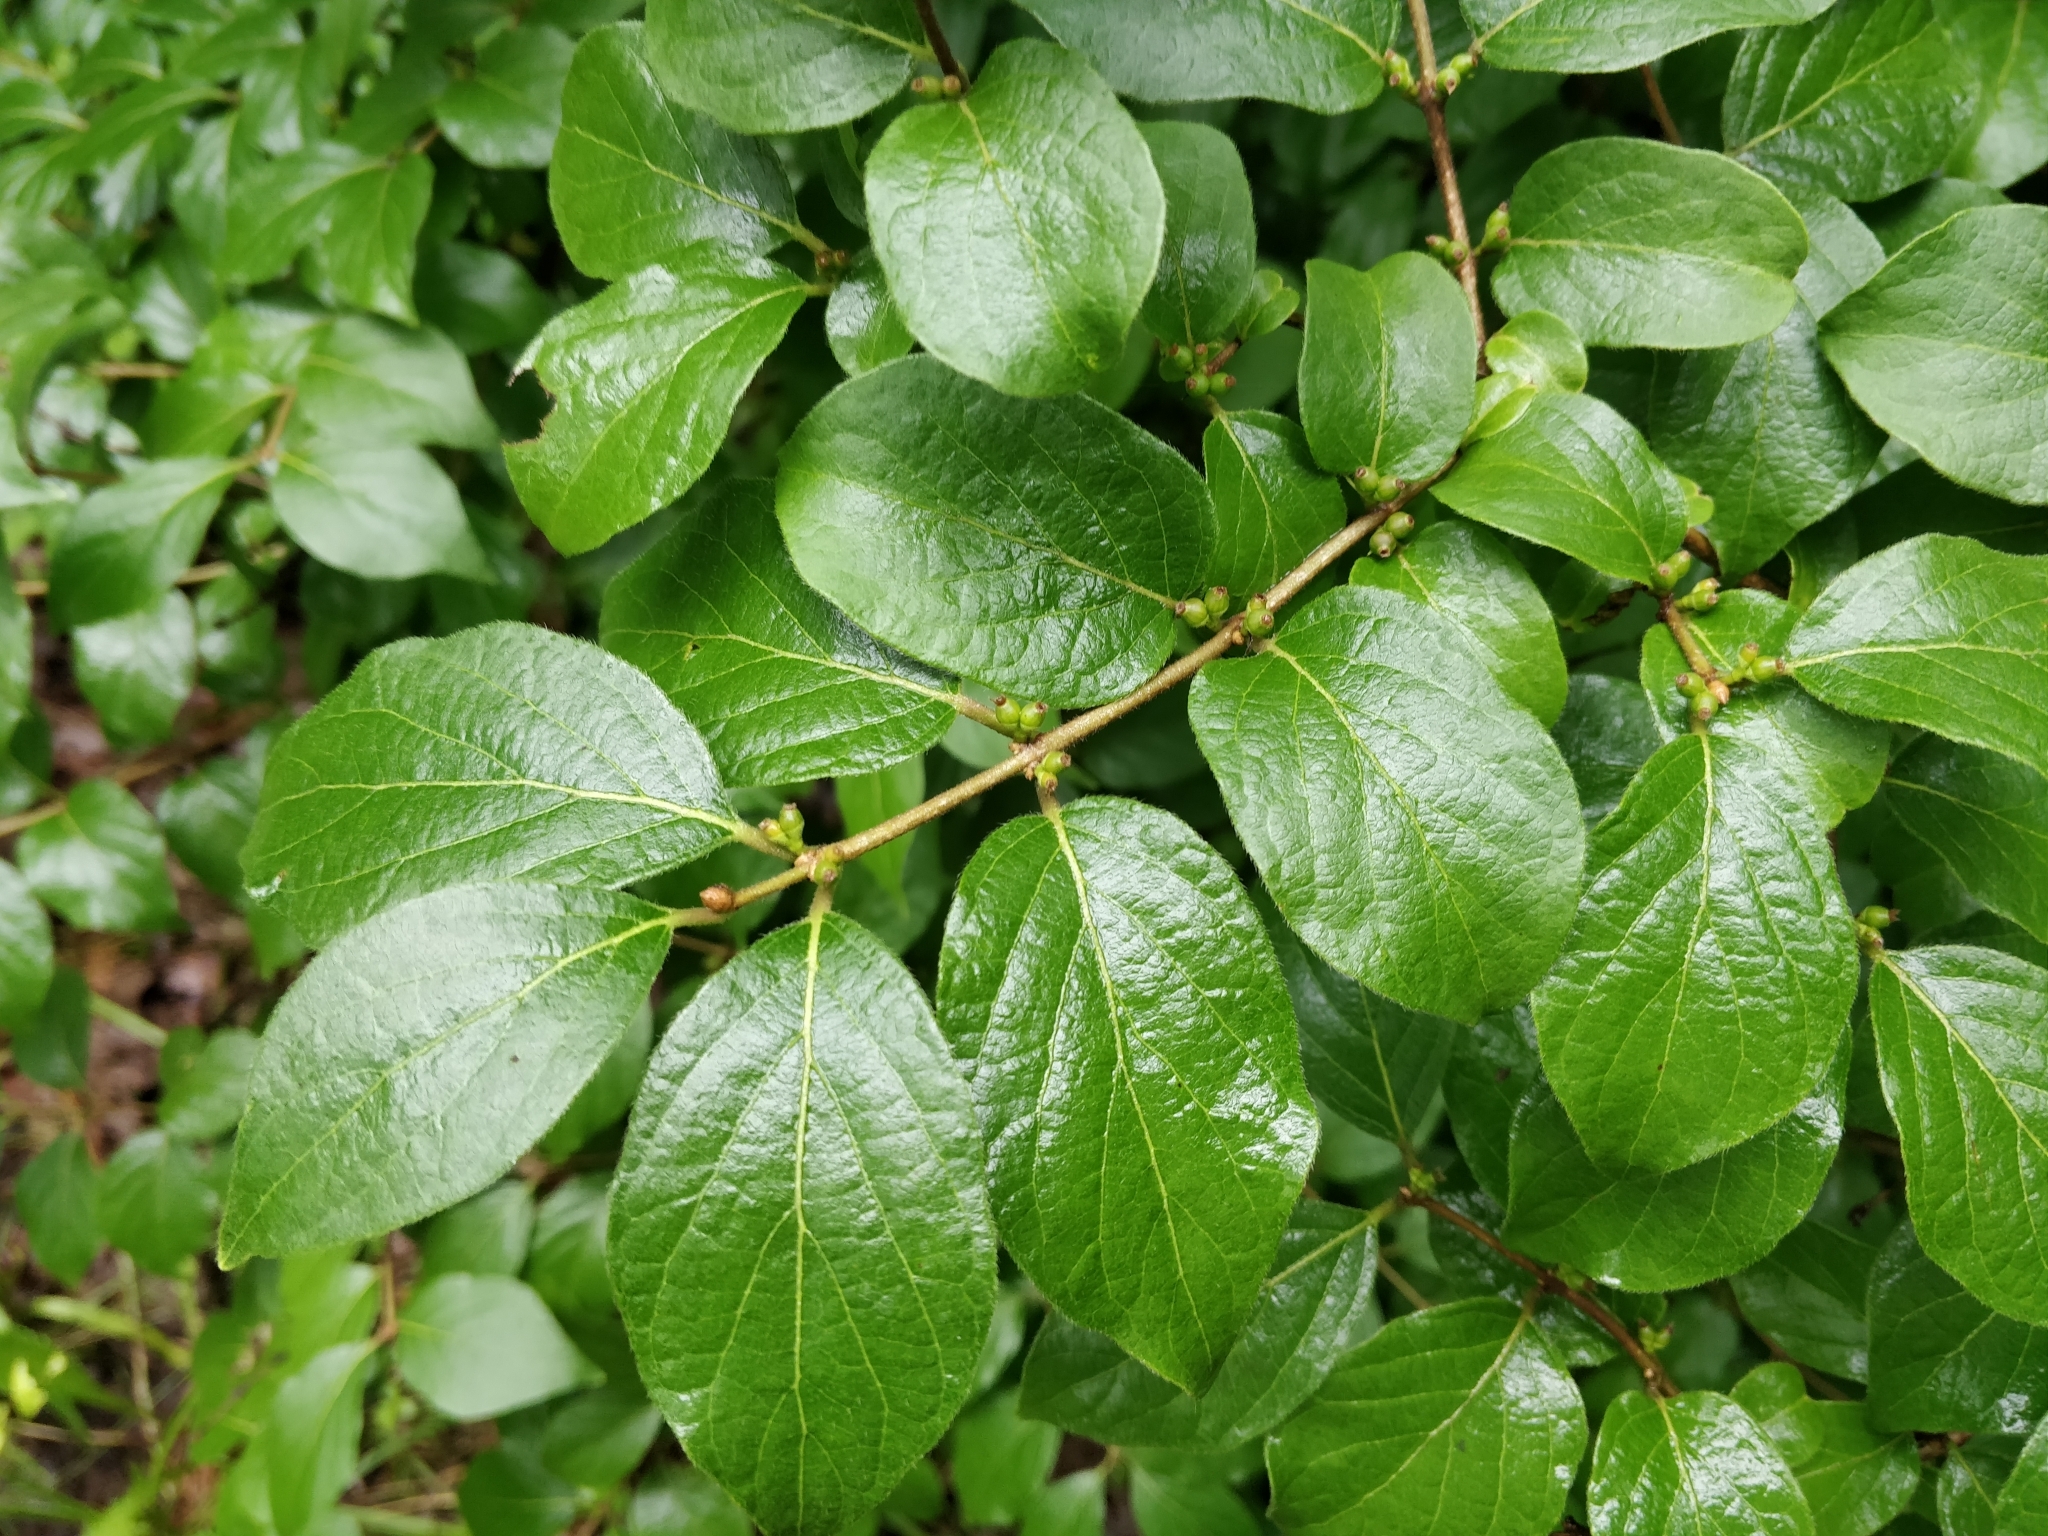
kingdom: Plantae
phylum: Tracheophyta
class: Magnoliopsida
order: Dipsacales
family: Caprifoliaceae
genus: Lonicera
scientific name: Lonicera maackii
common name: Amur honeysuckle
